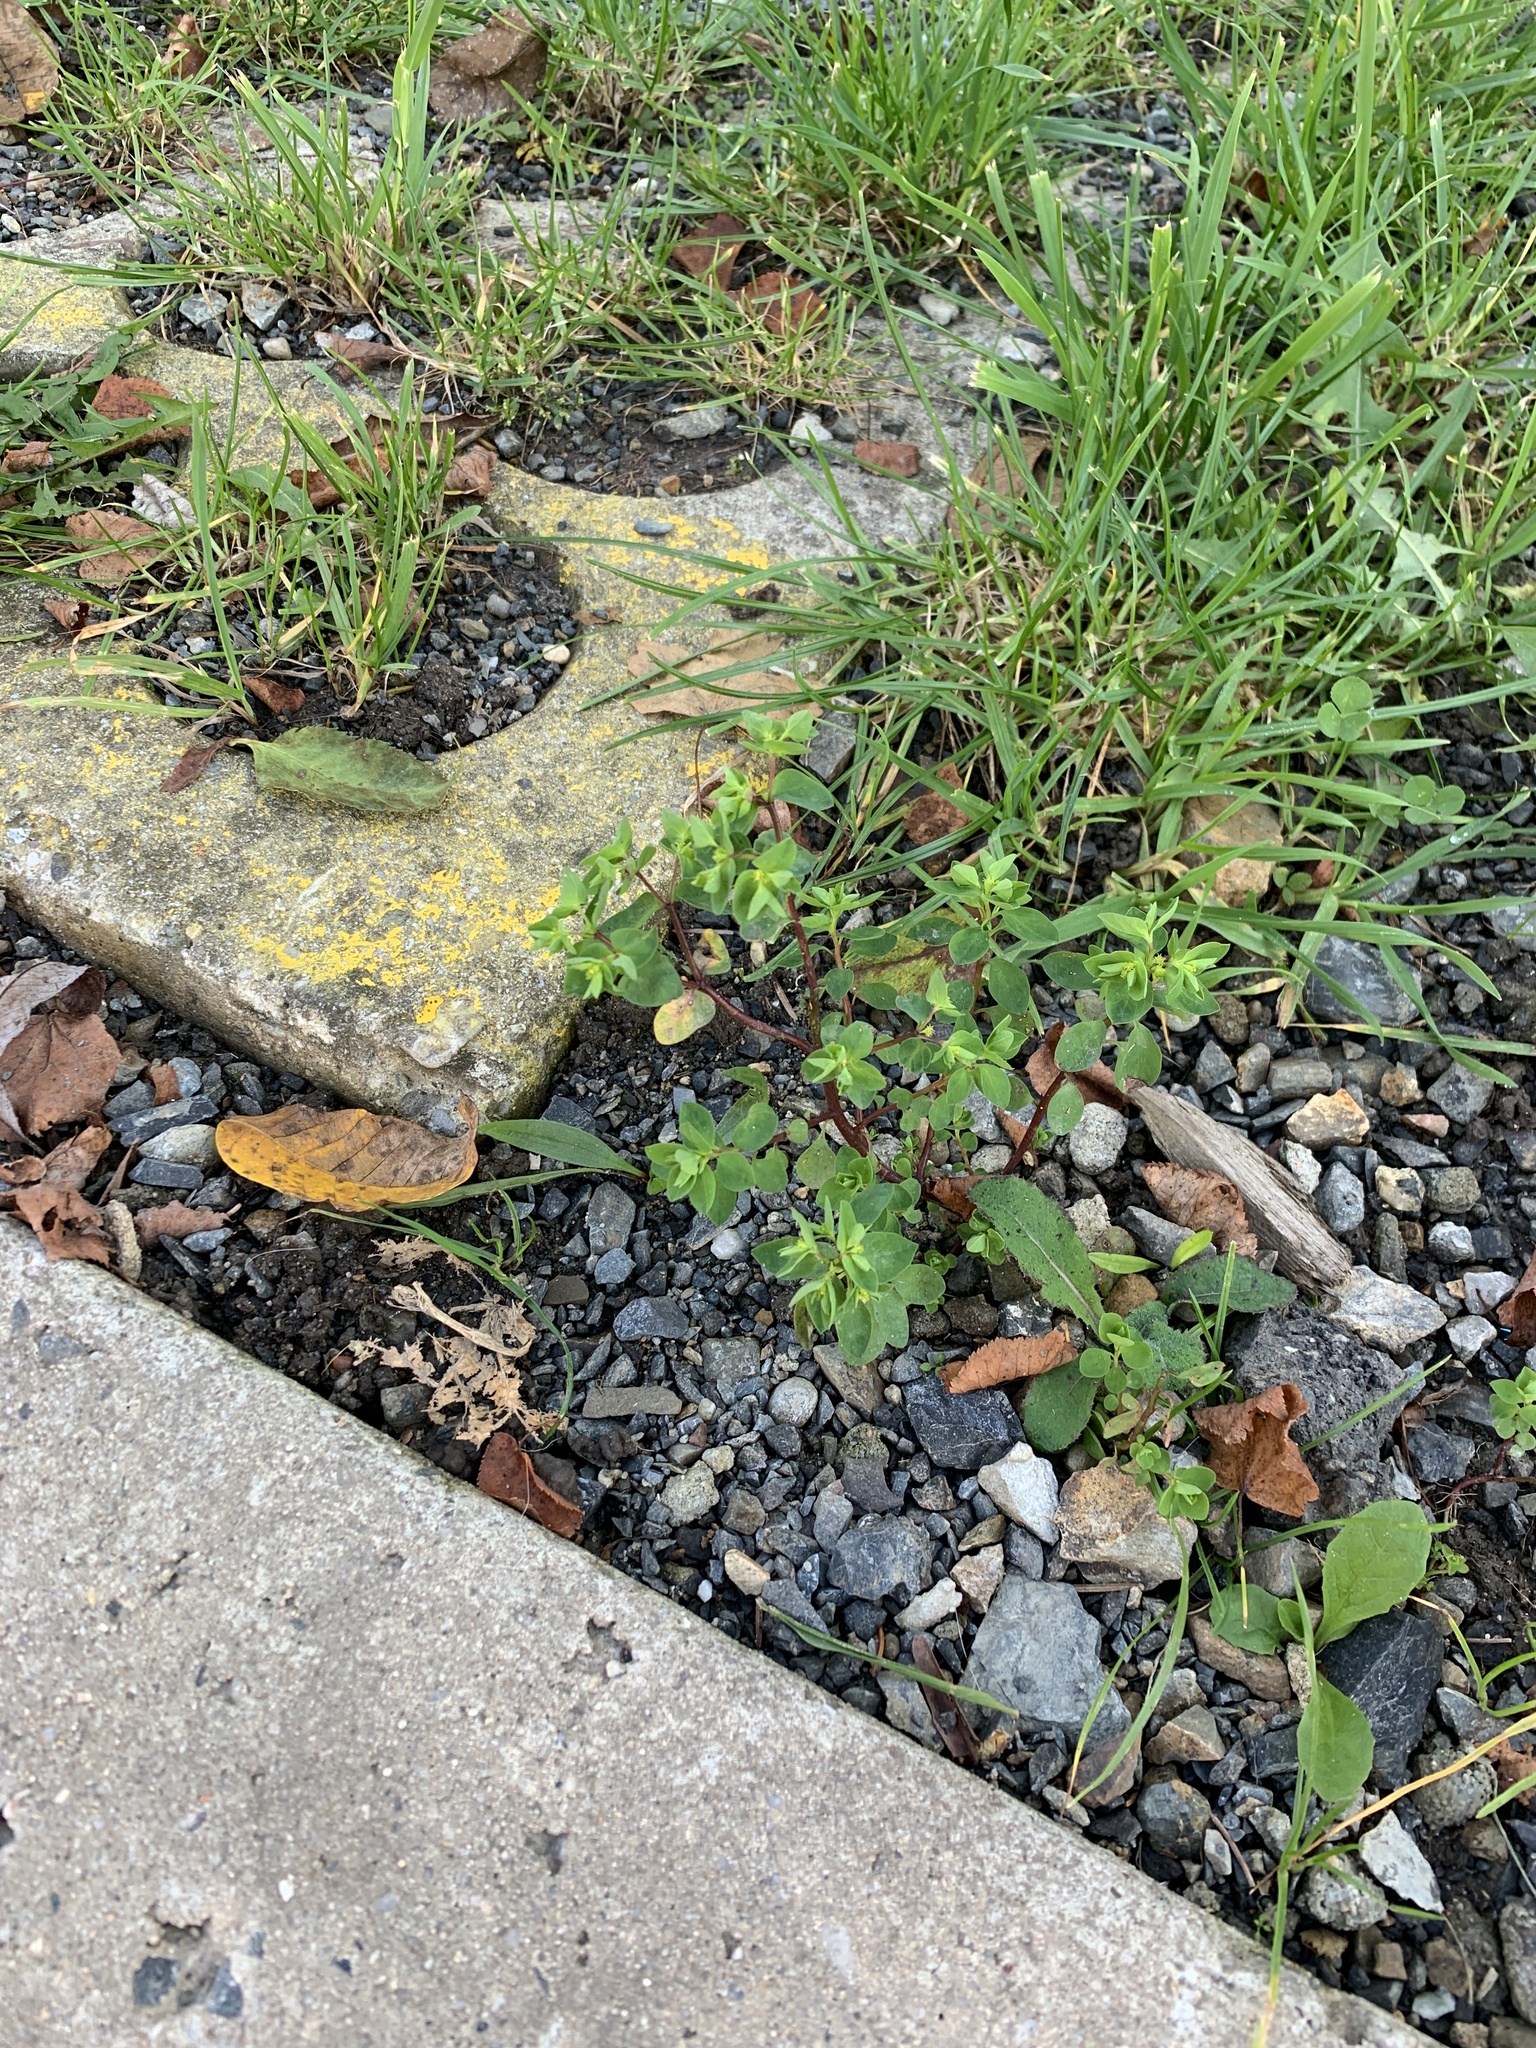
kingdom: Plantae
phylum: Tracheophyta
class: Magnoliopsida
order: Malpighiales
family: Euphorbiaceae
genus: Euphorbia
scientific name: Euphorbia peplus
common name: Petty spurge
